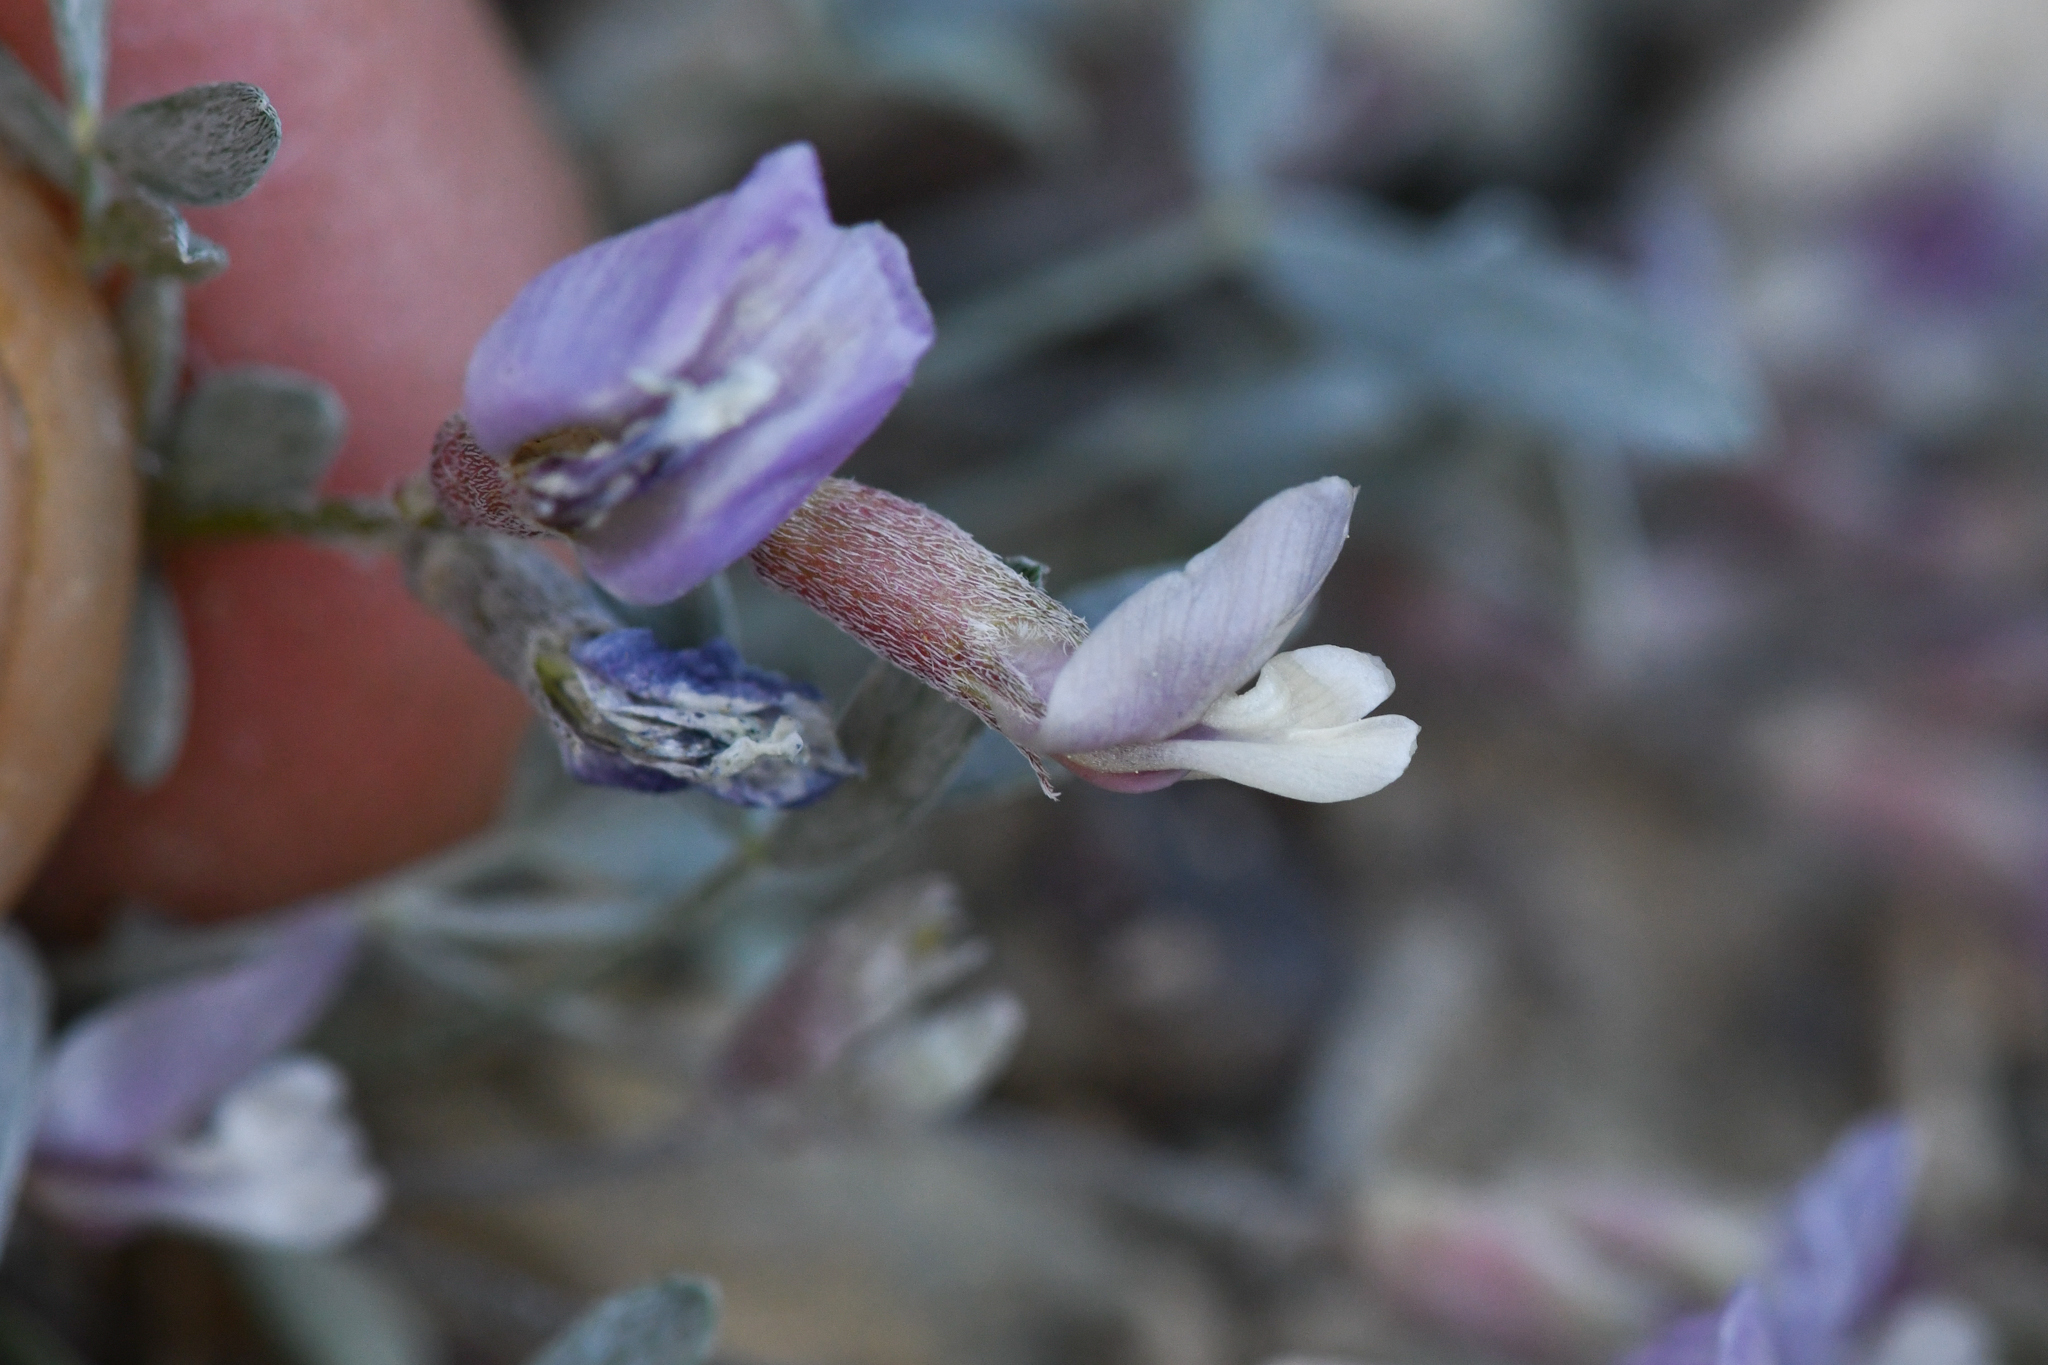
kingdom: Plantae
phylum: Tracheophyta
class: Magnoliopsida
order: Fabales
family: Fabaceae
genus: Astragalus
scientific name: Astragalus calycosus
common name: King's milkvetch
